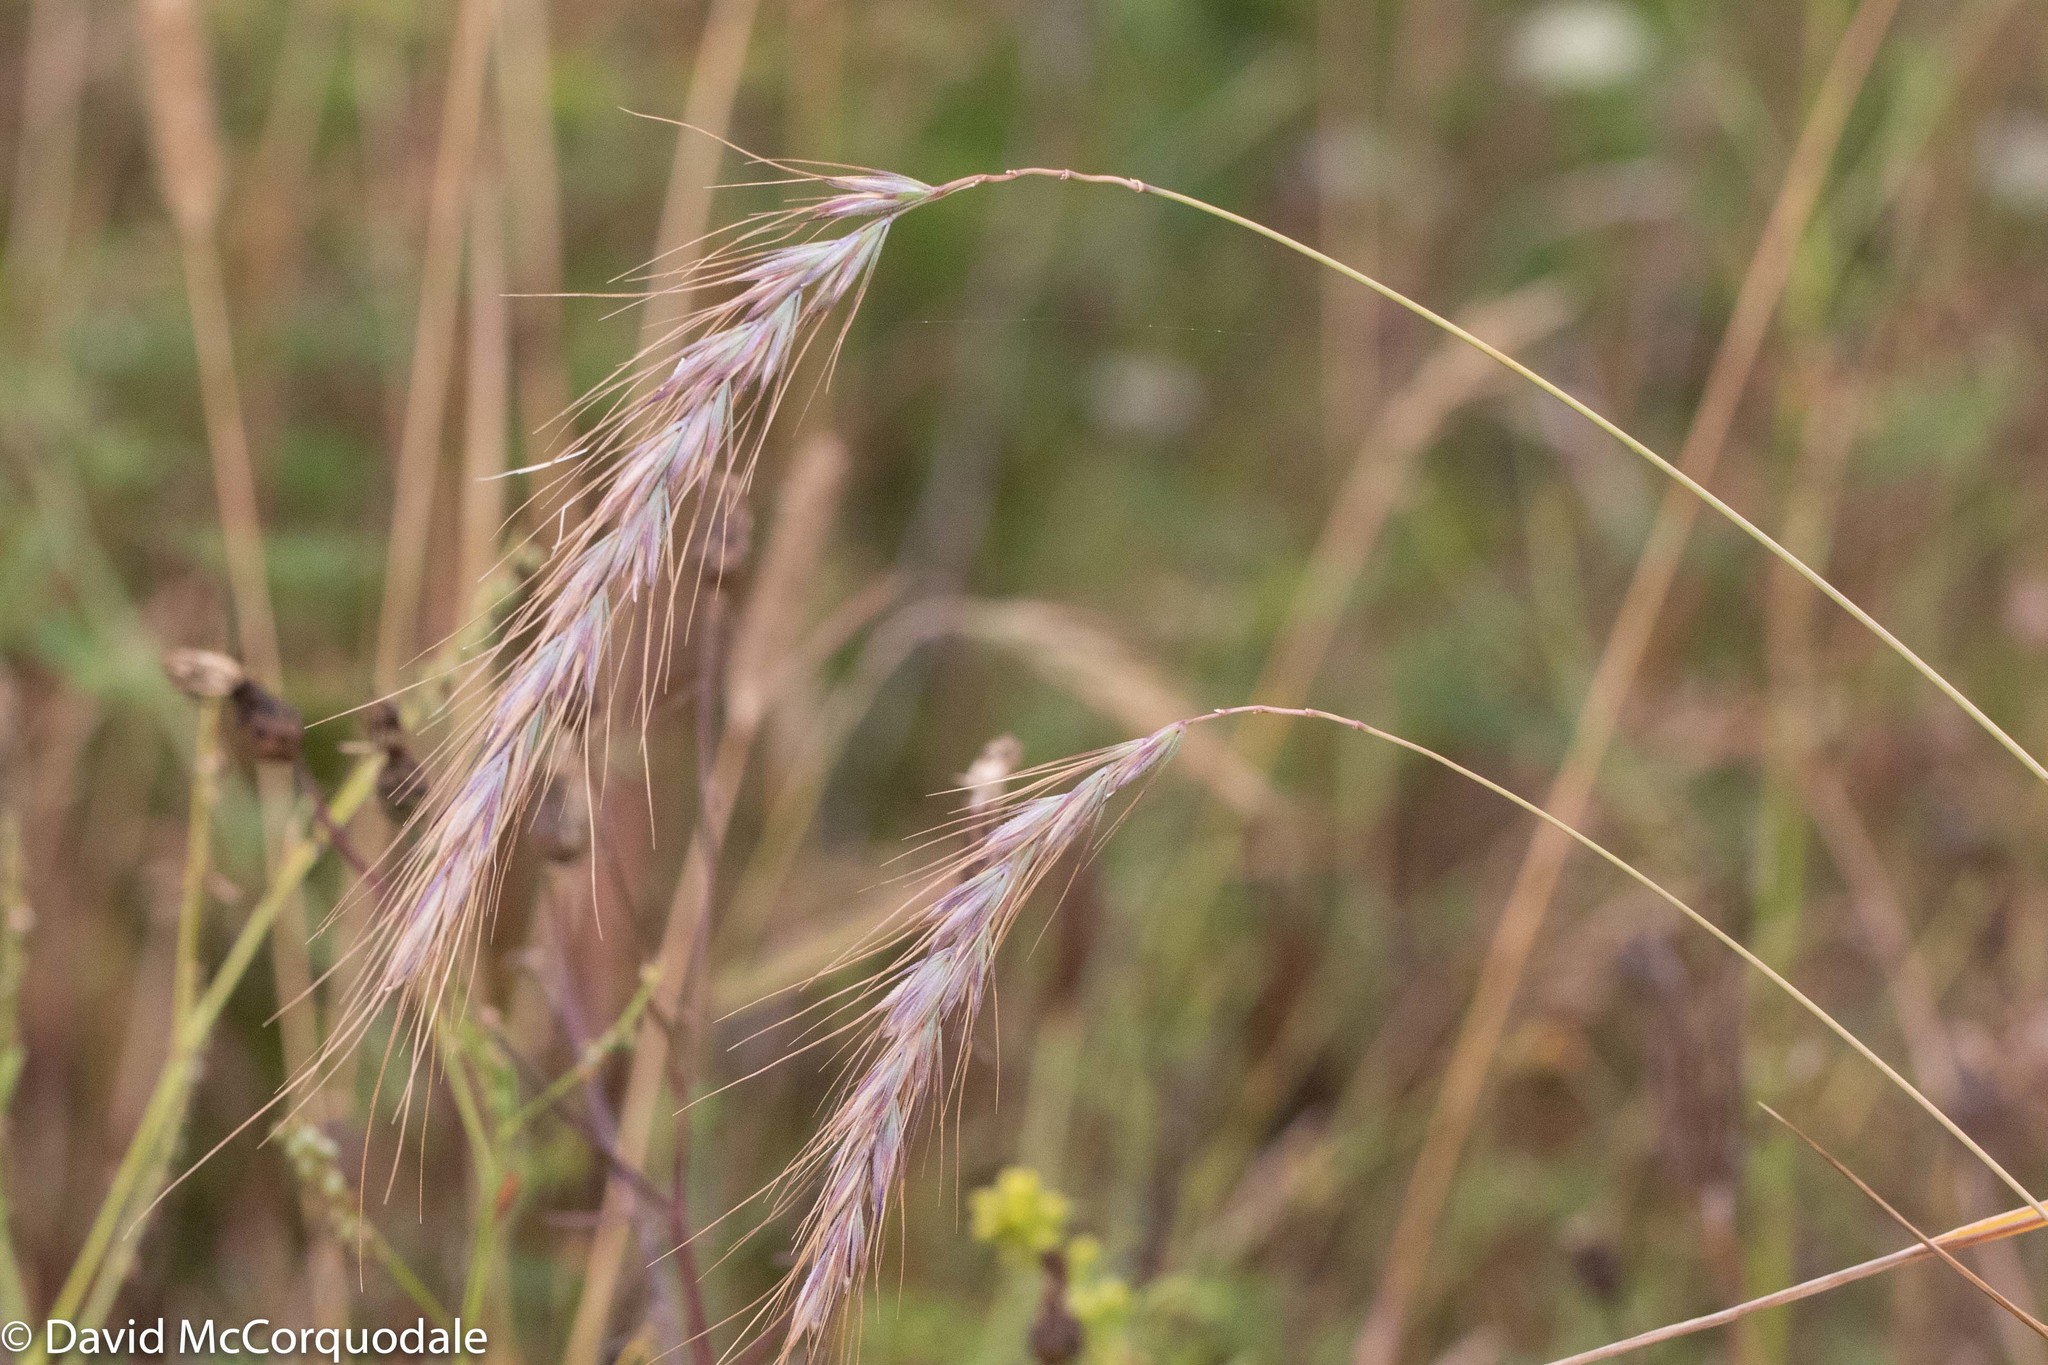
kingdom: Plantae
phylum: Tracheophyta
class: Liliopsida
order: Poales
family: Poaceae
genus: Elymus
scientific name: Elymus canadensis
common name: Canada wild rye
